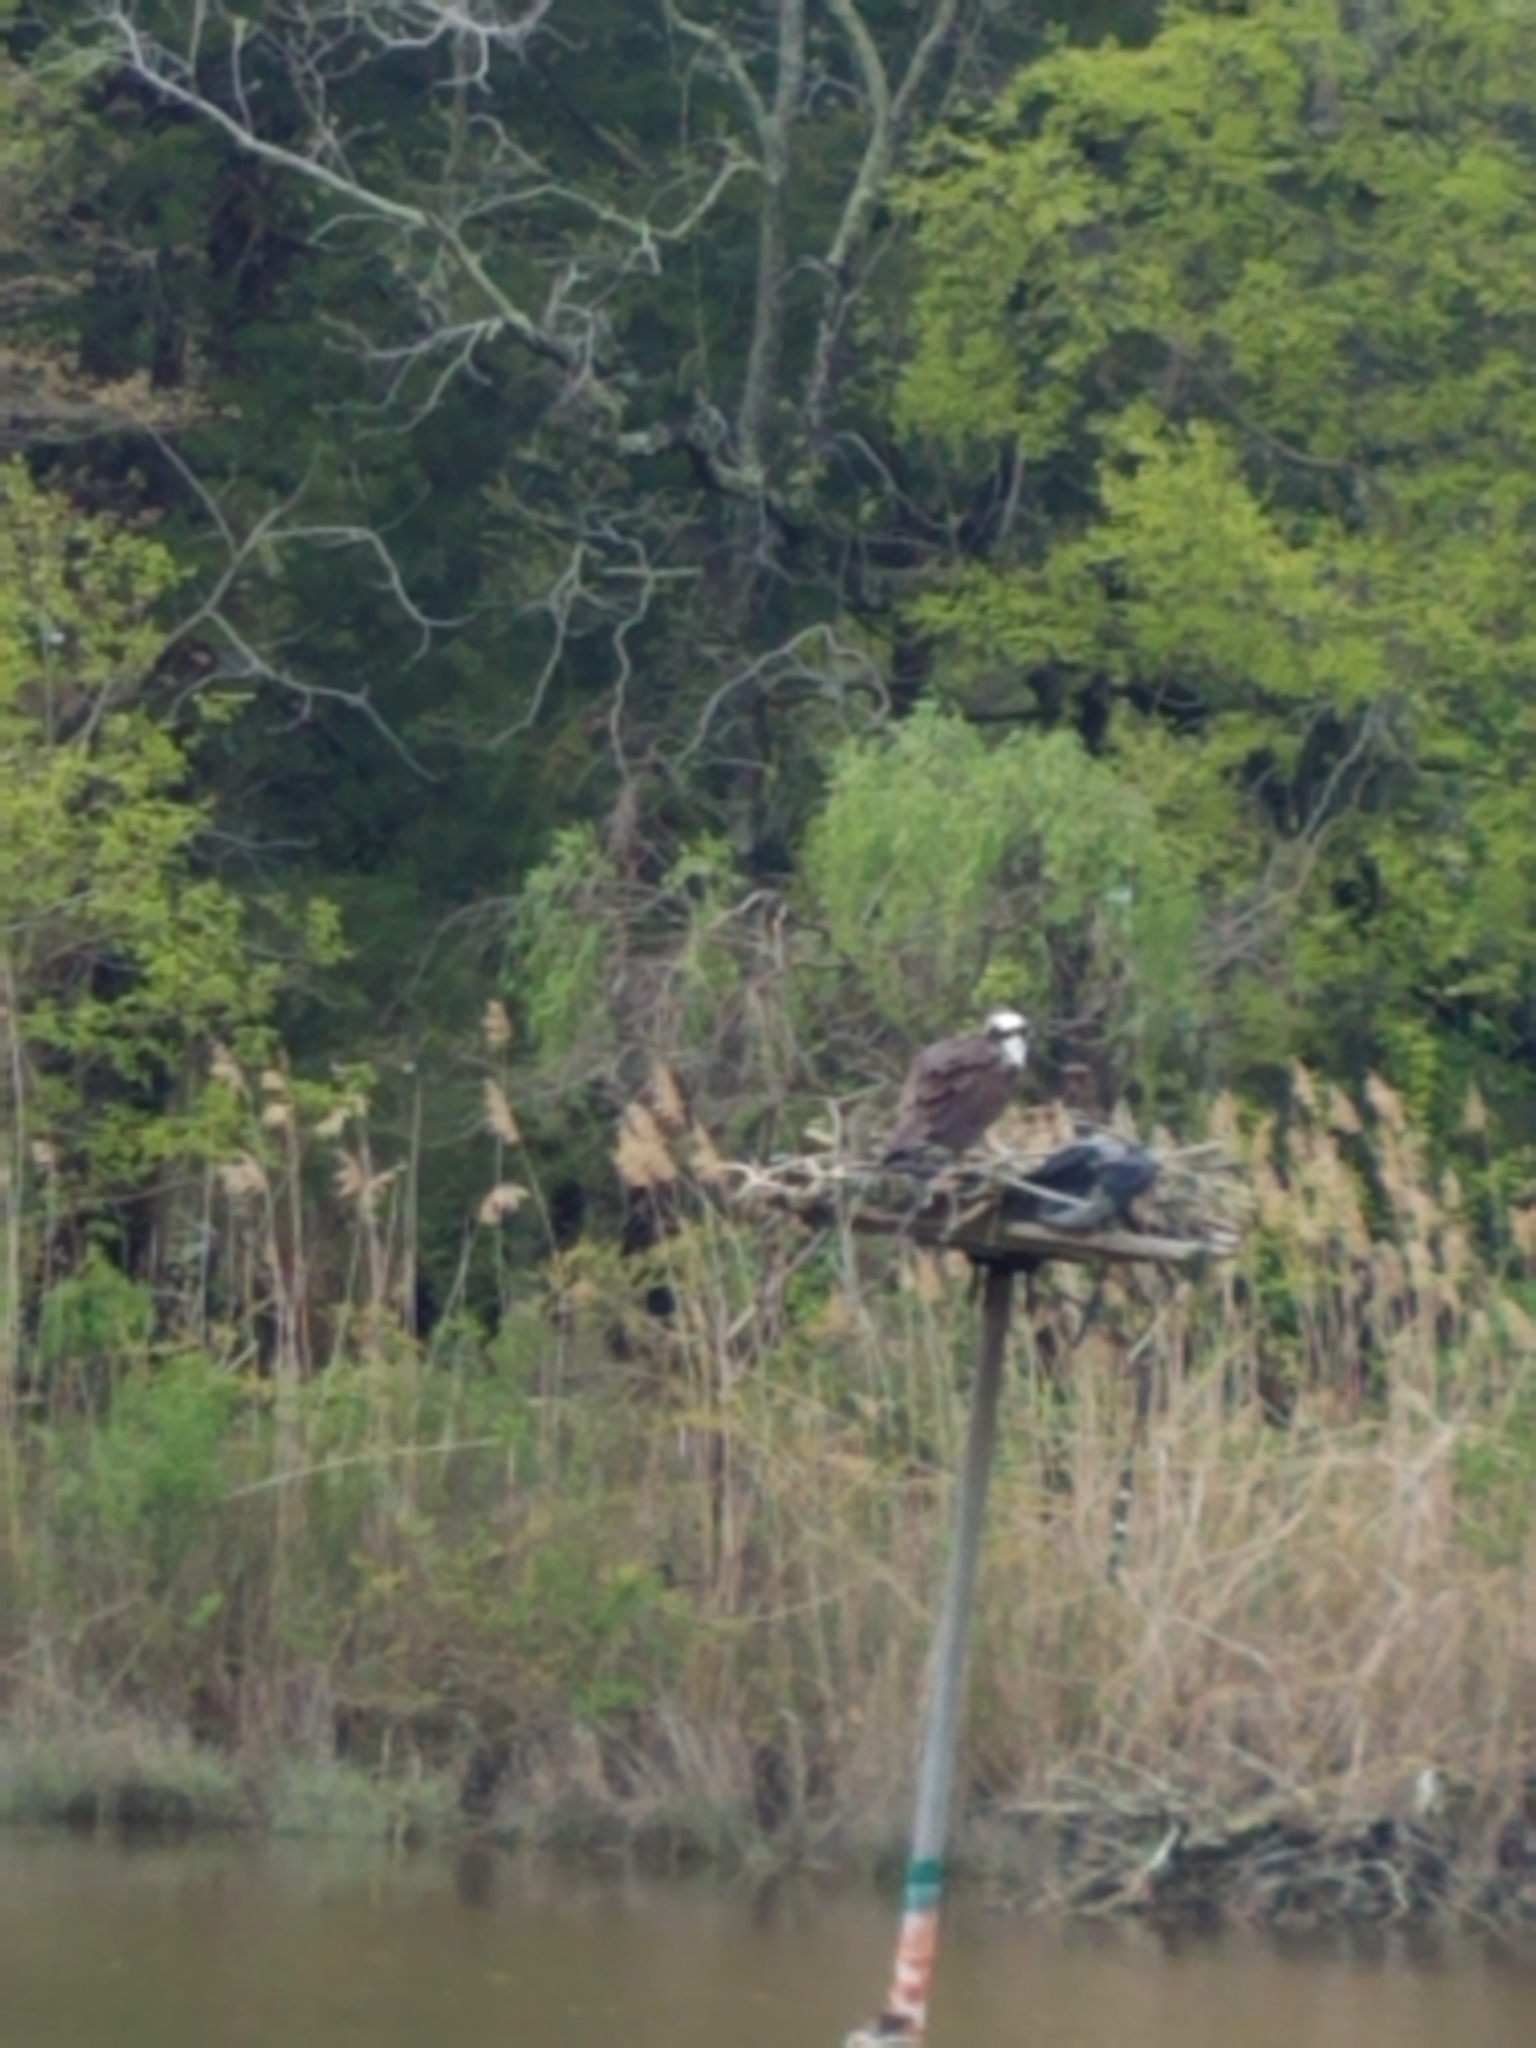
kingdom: Animalia
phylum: Chordata
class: Aves
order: Accipitriformes
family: Pandionidae
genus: Pandion
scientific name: Pandion haliaetus
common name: Osprey
